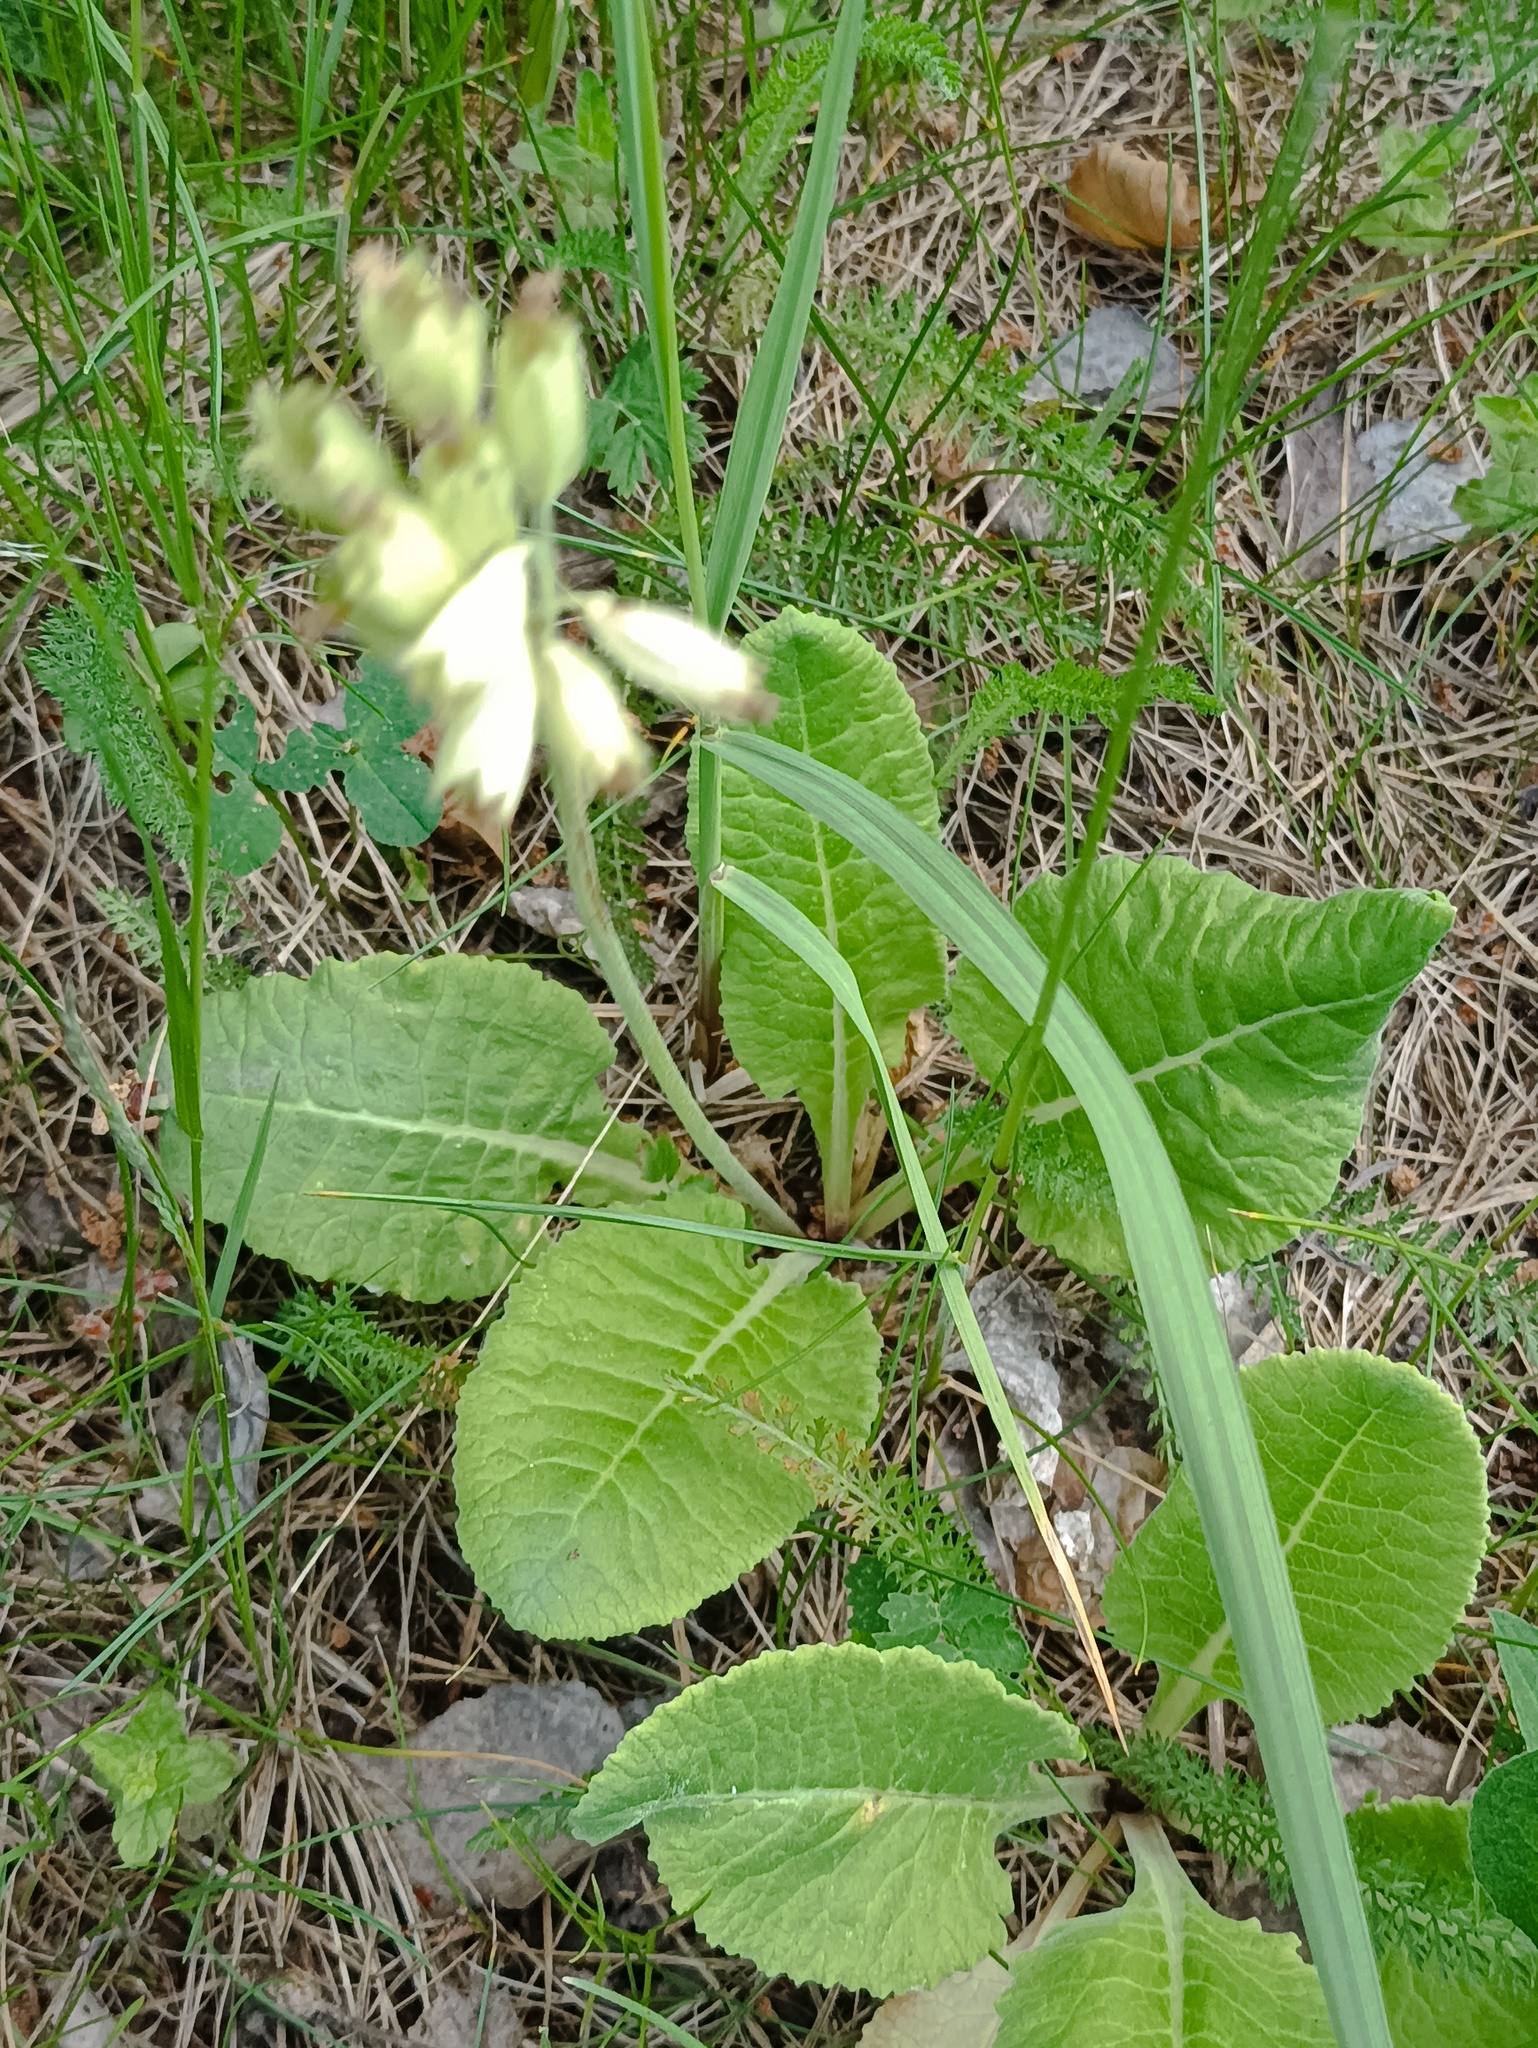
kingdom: Plantae
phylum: Tracheophyta
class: Magnoliopsida
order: Ericales
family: Primulaceae
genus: Primula
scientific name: Primula veris
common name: Cowslip
